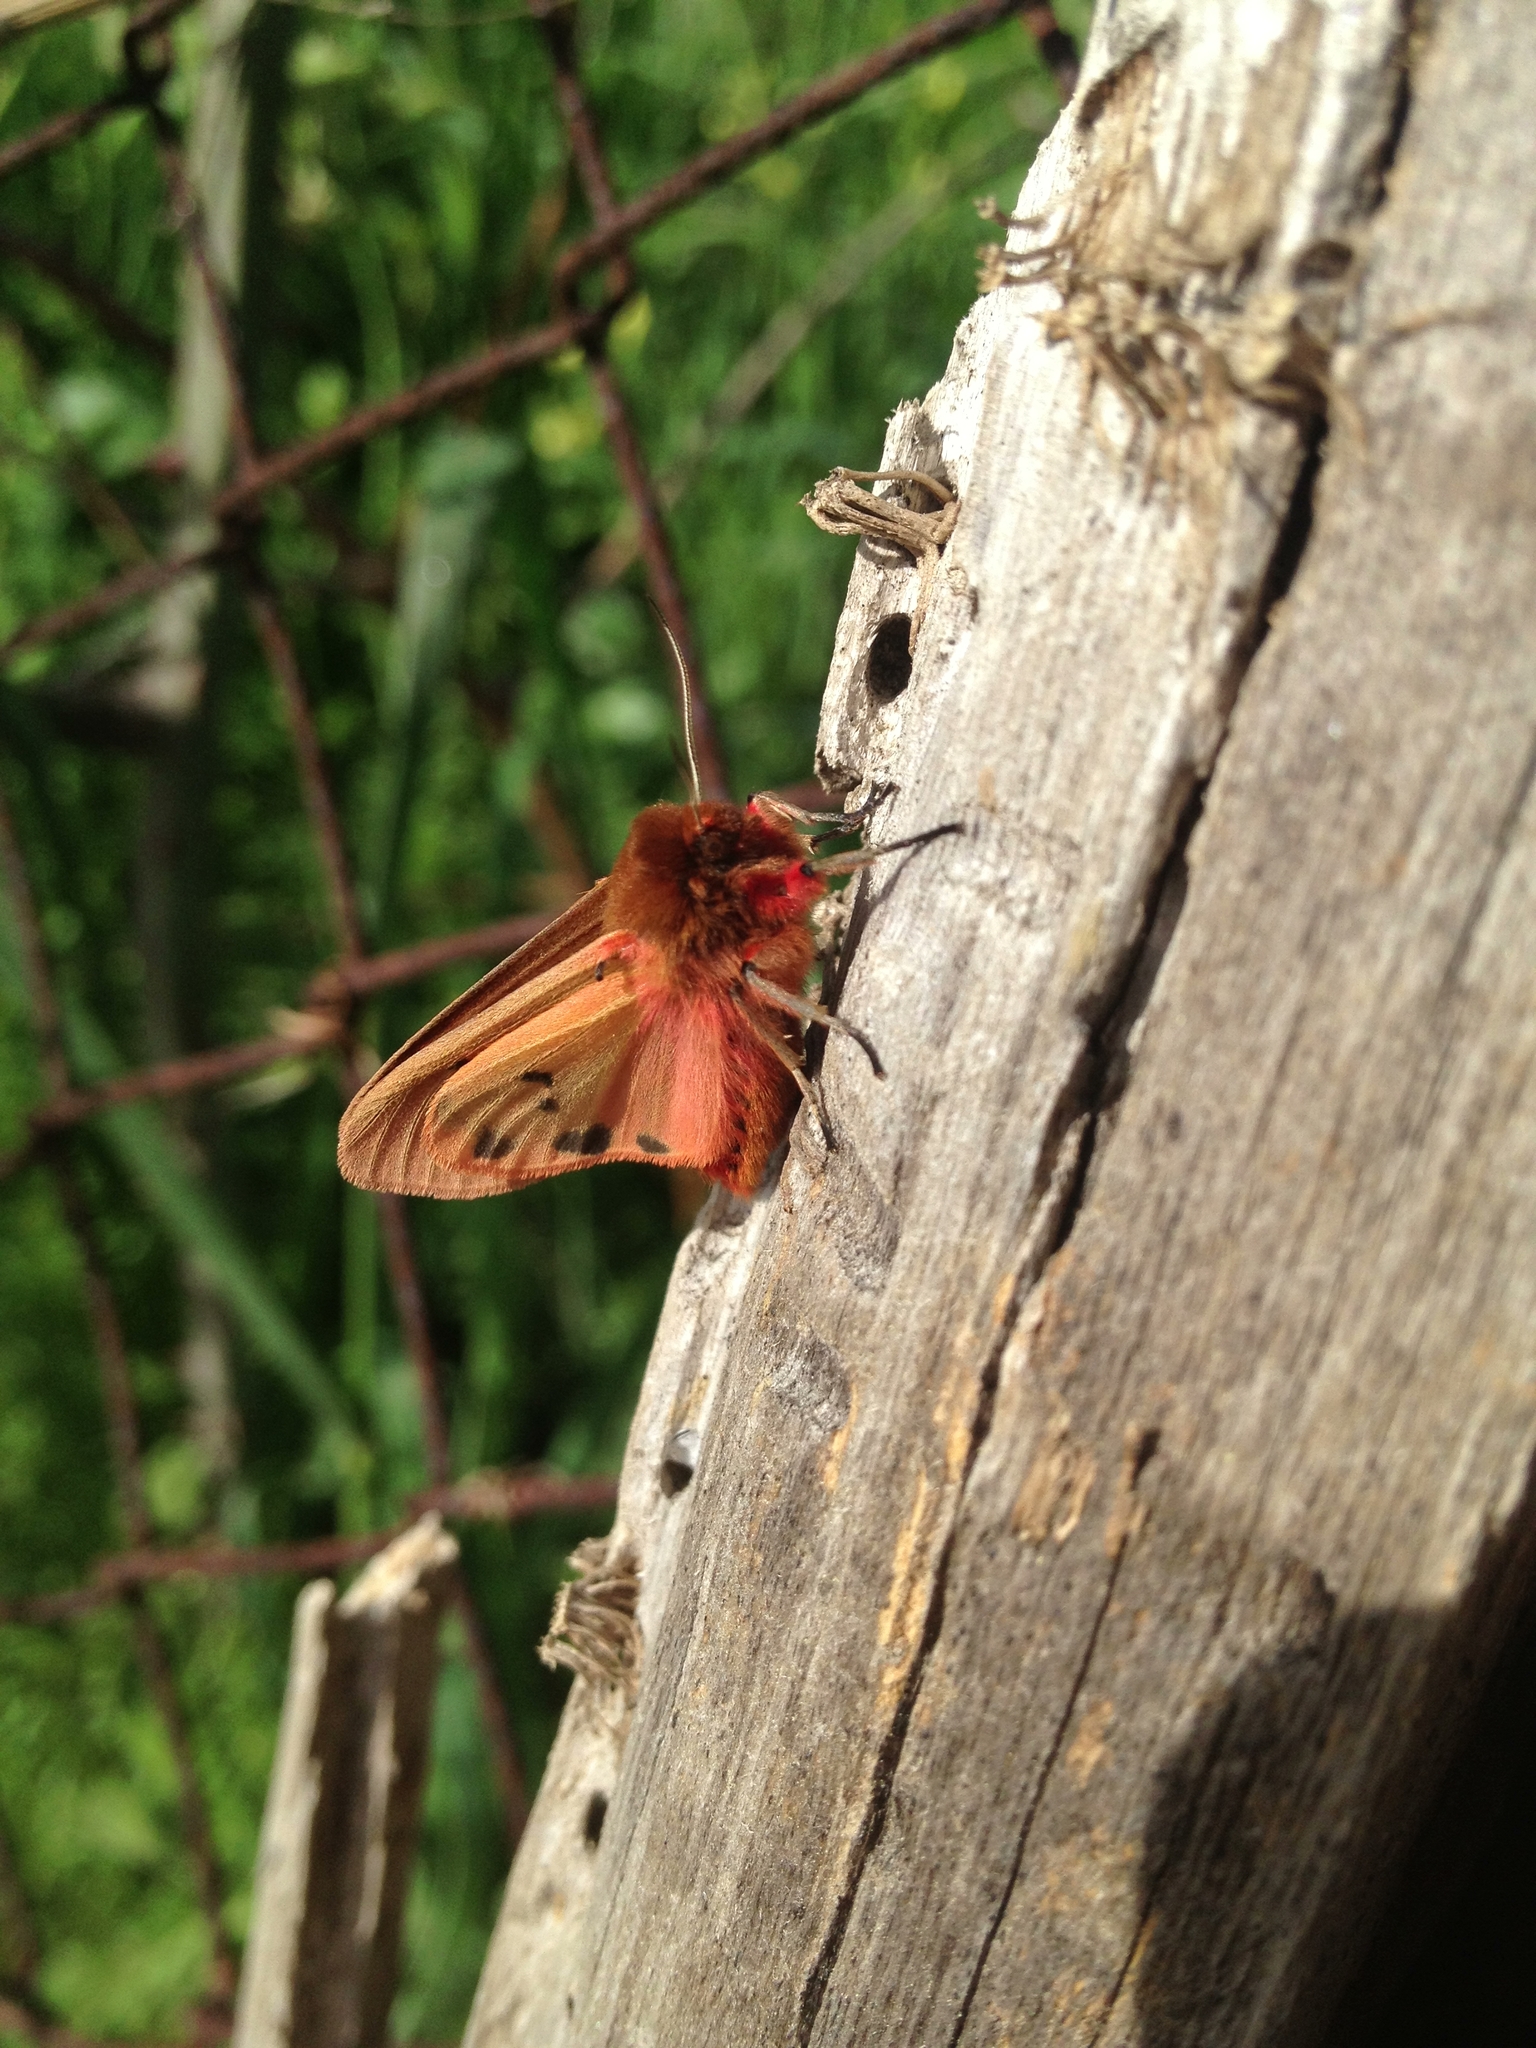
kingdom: Animalia
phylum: Arthropoda
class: Insecta
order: Lepidoptera
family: Erebidae
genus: Phragmatobia
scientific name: Phragmatobia fuliginosa
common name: Ruby tiger
